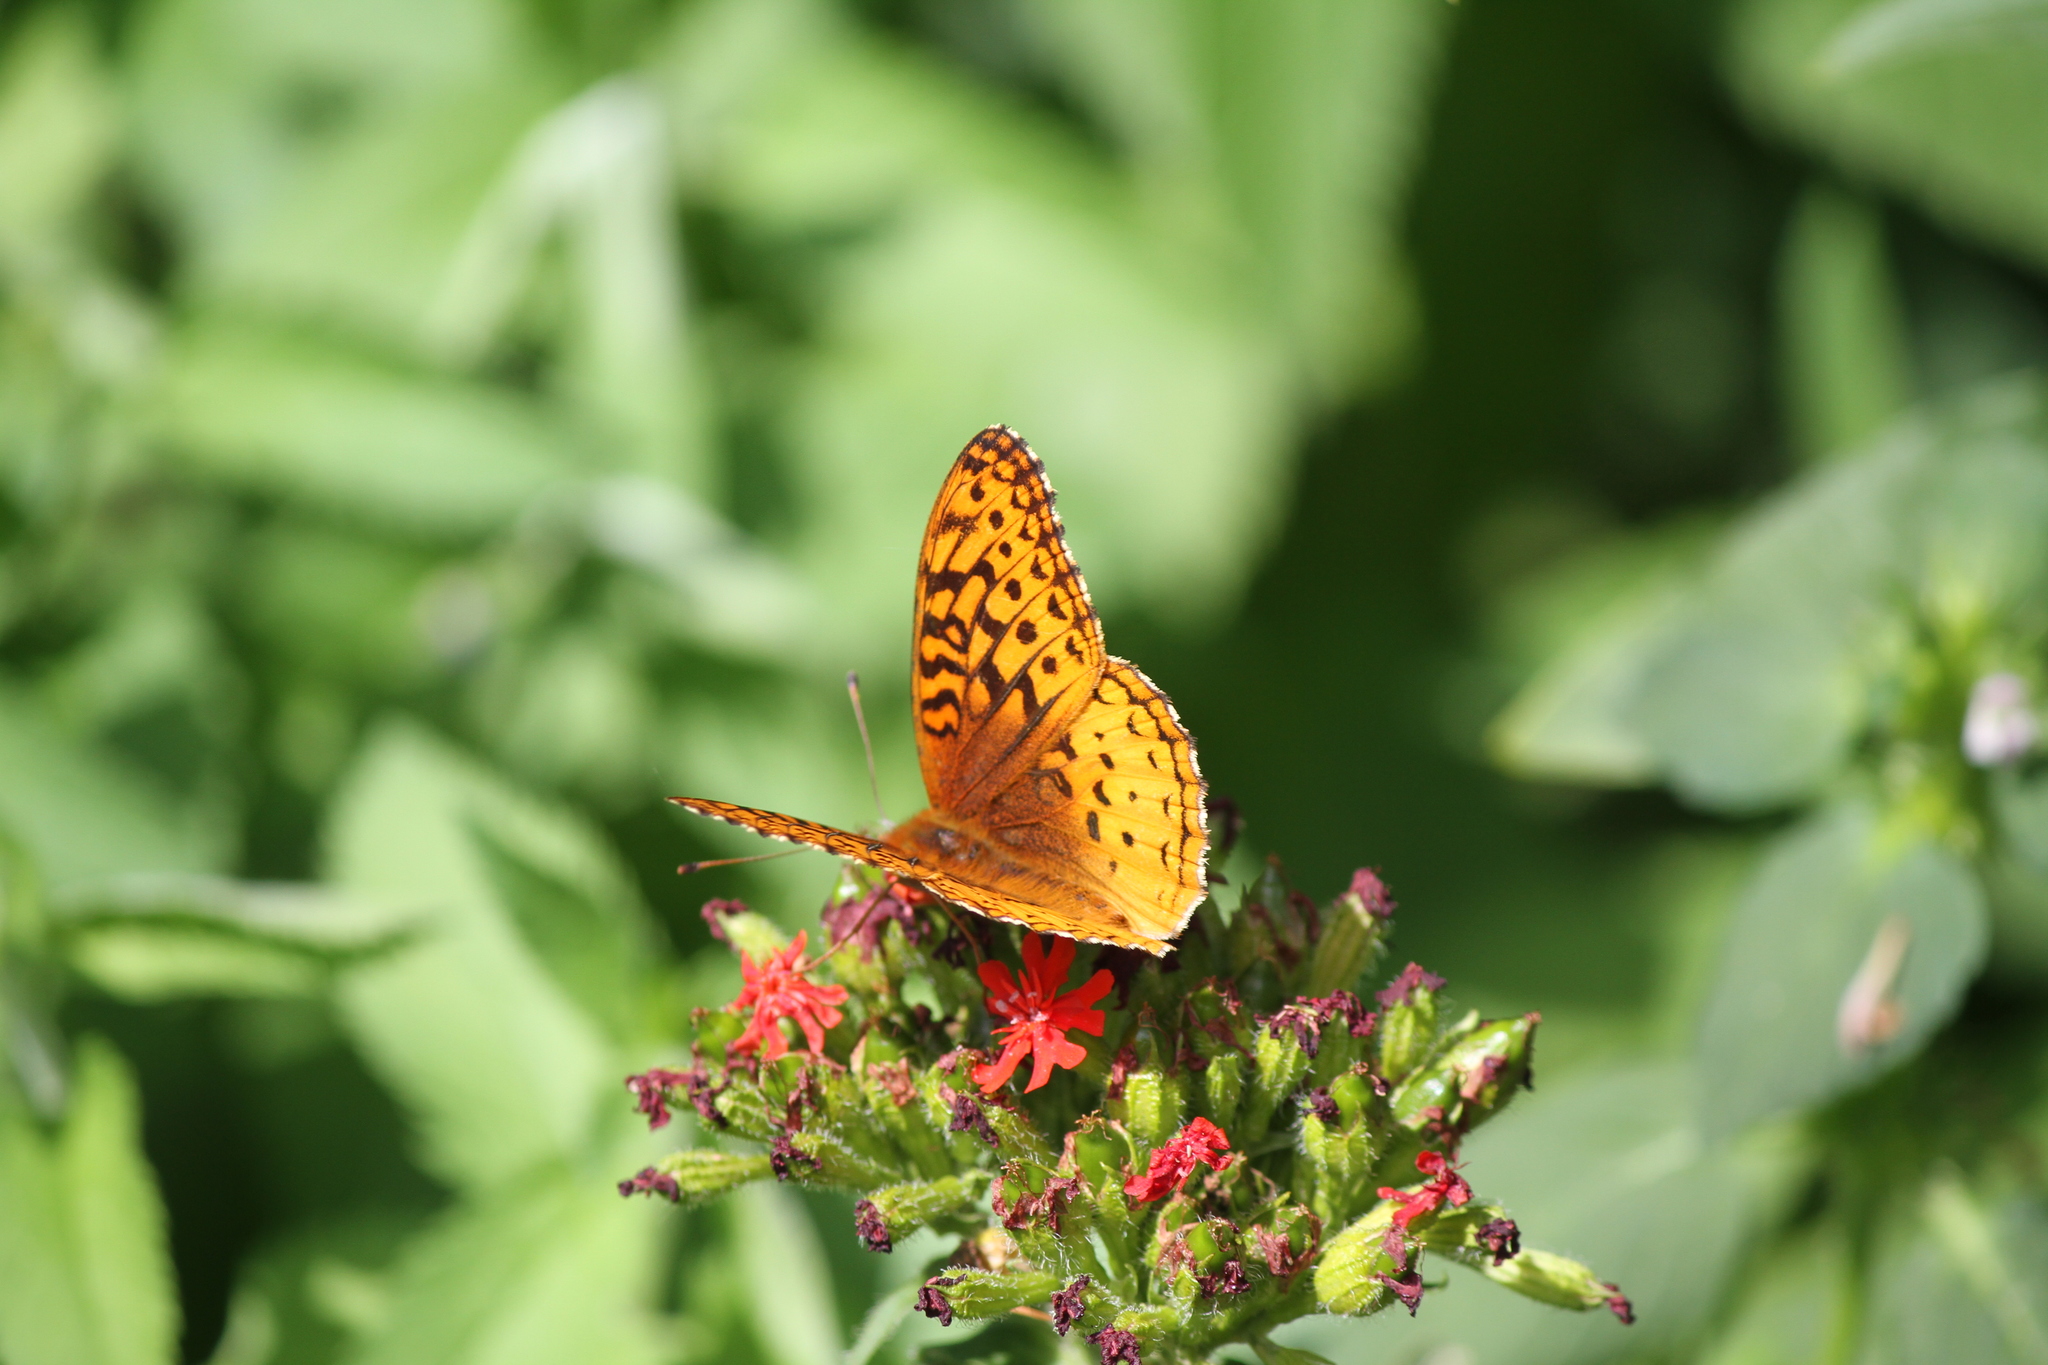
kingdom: Animalia
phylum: Arthropoda
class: Insecta
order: Lepidoptera
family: Nymphalidae
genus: Speyeria
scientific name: Speyeria cybele
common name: Great spangled fritillary
